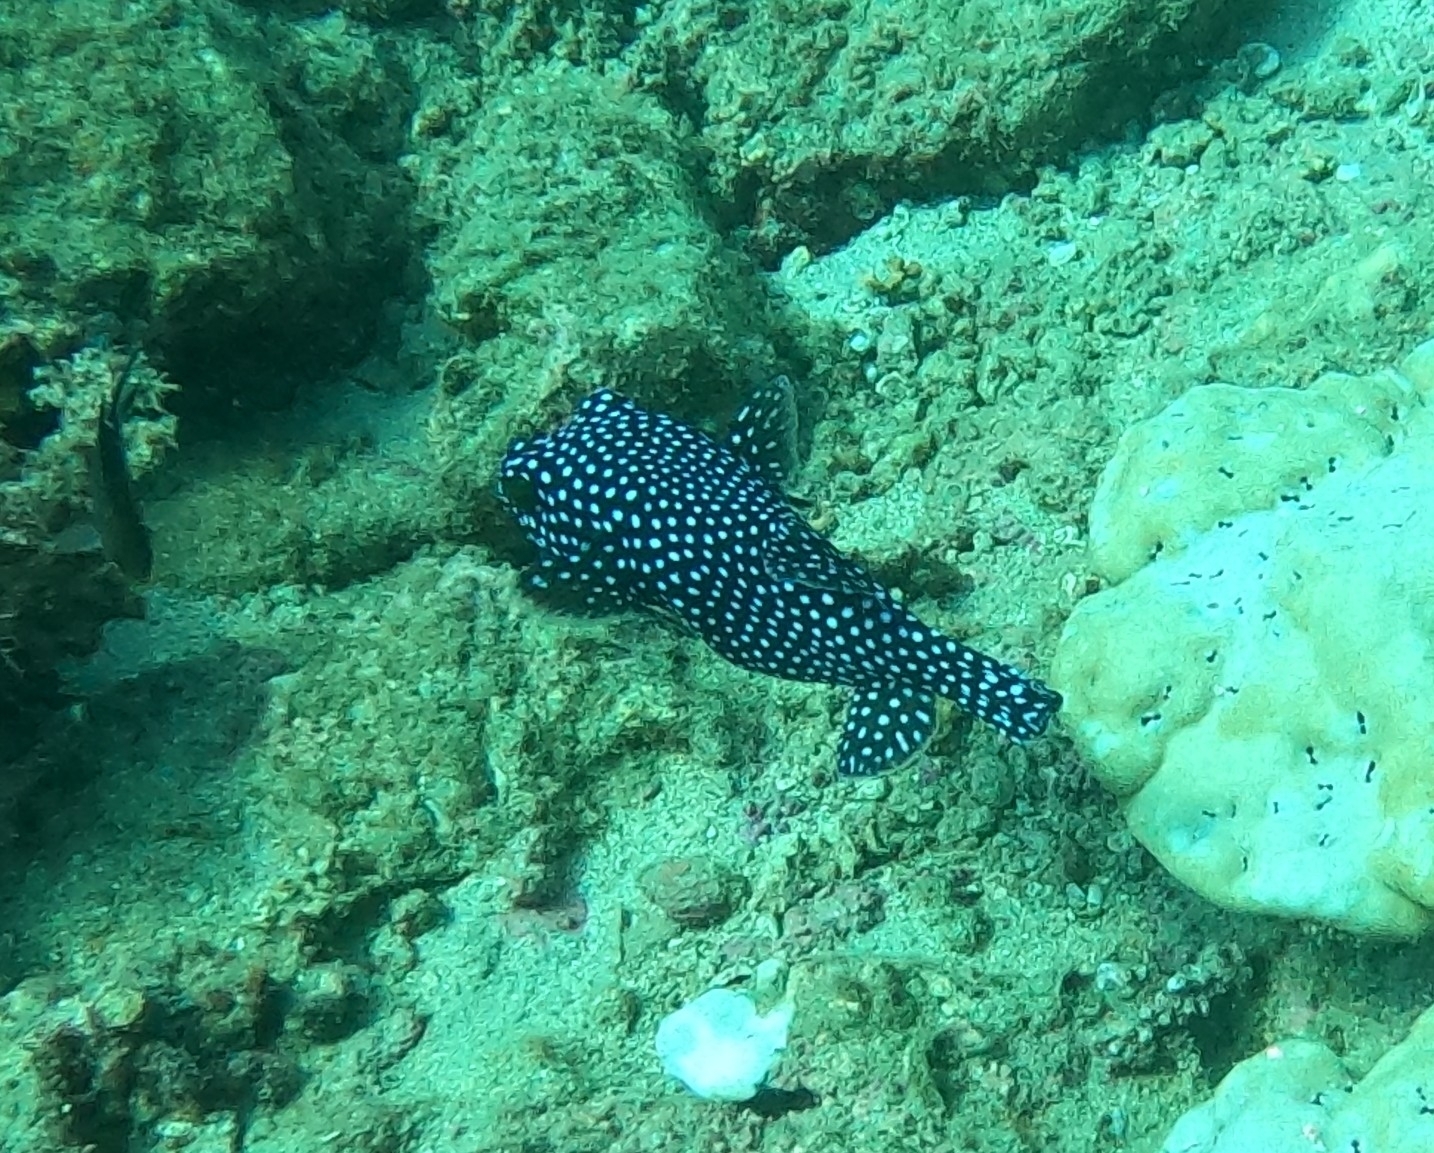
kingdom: Animalia
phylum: Chordata
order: Tetraodontiformes
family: Tetraodontidae
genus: Arothron
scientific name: Arothron meleagris
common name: Guinea-fowl pufferfish
